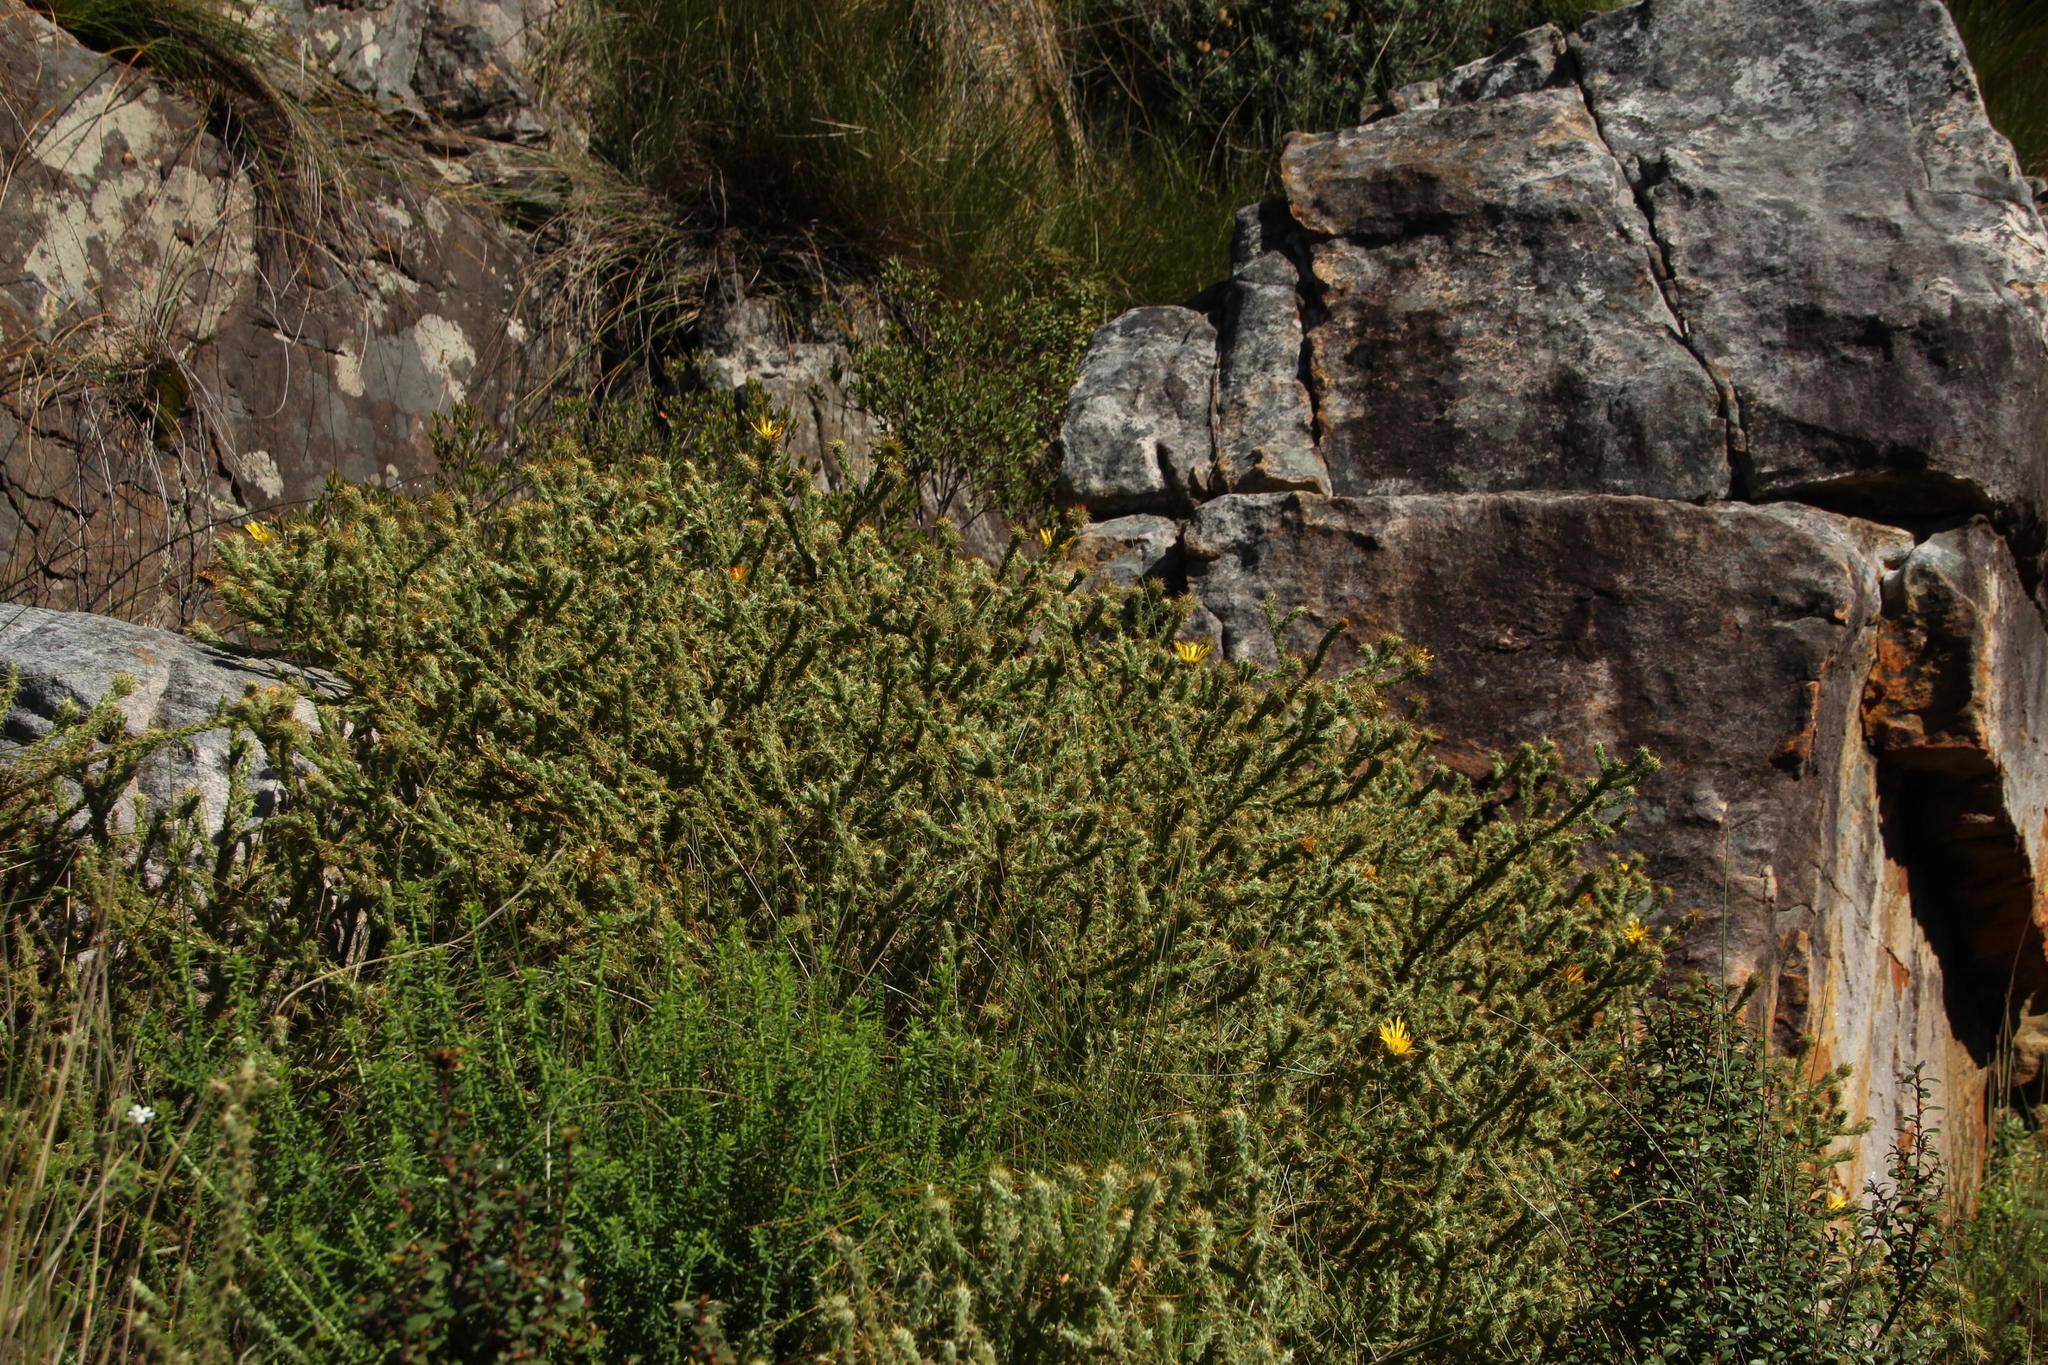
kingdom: Plantae
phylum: Tracheophyta
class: Magnoliopsida
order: Asterales
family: Asteraceae
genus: Cullumia
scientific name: Cullumia reticulata
